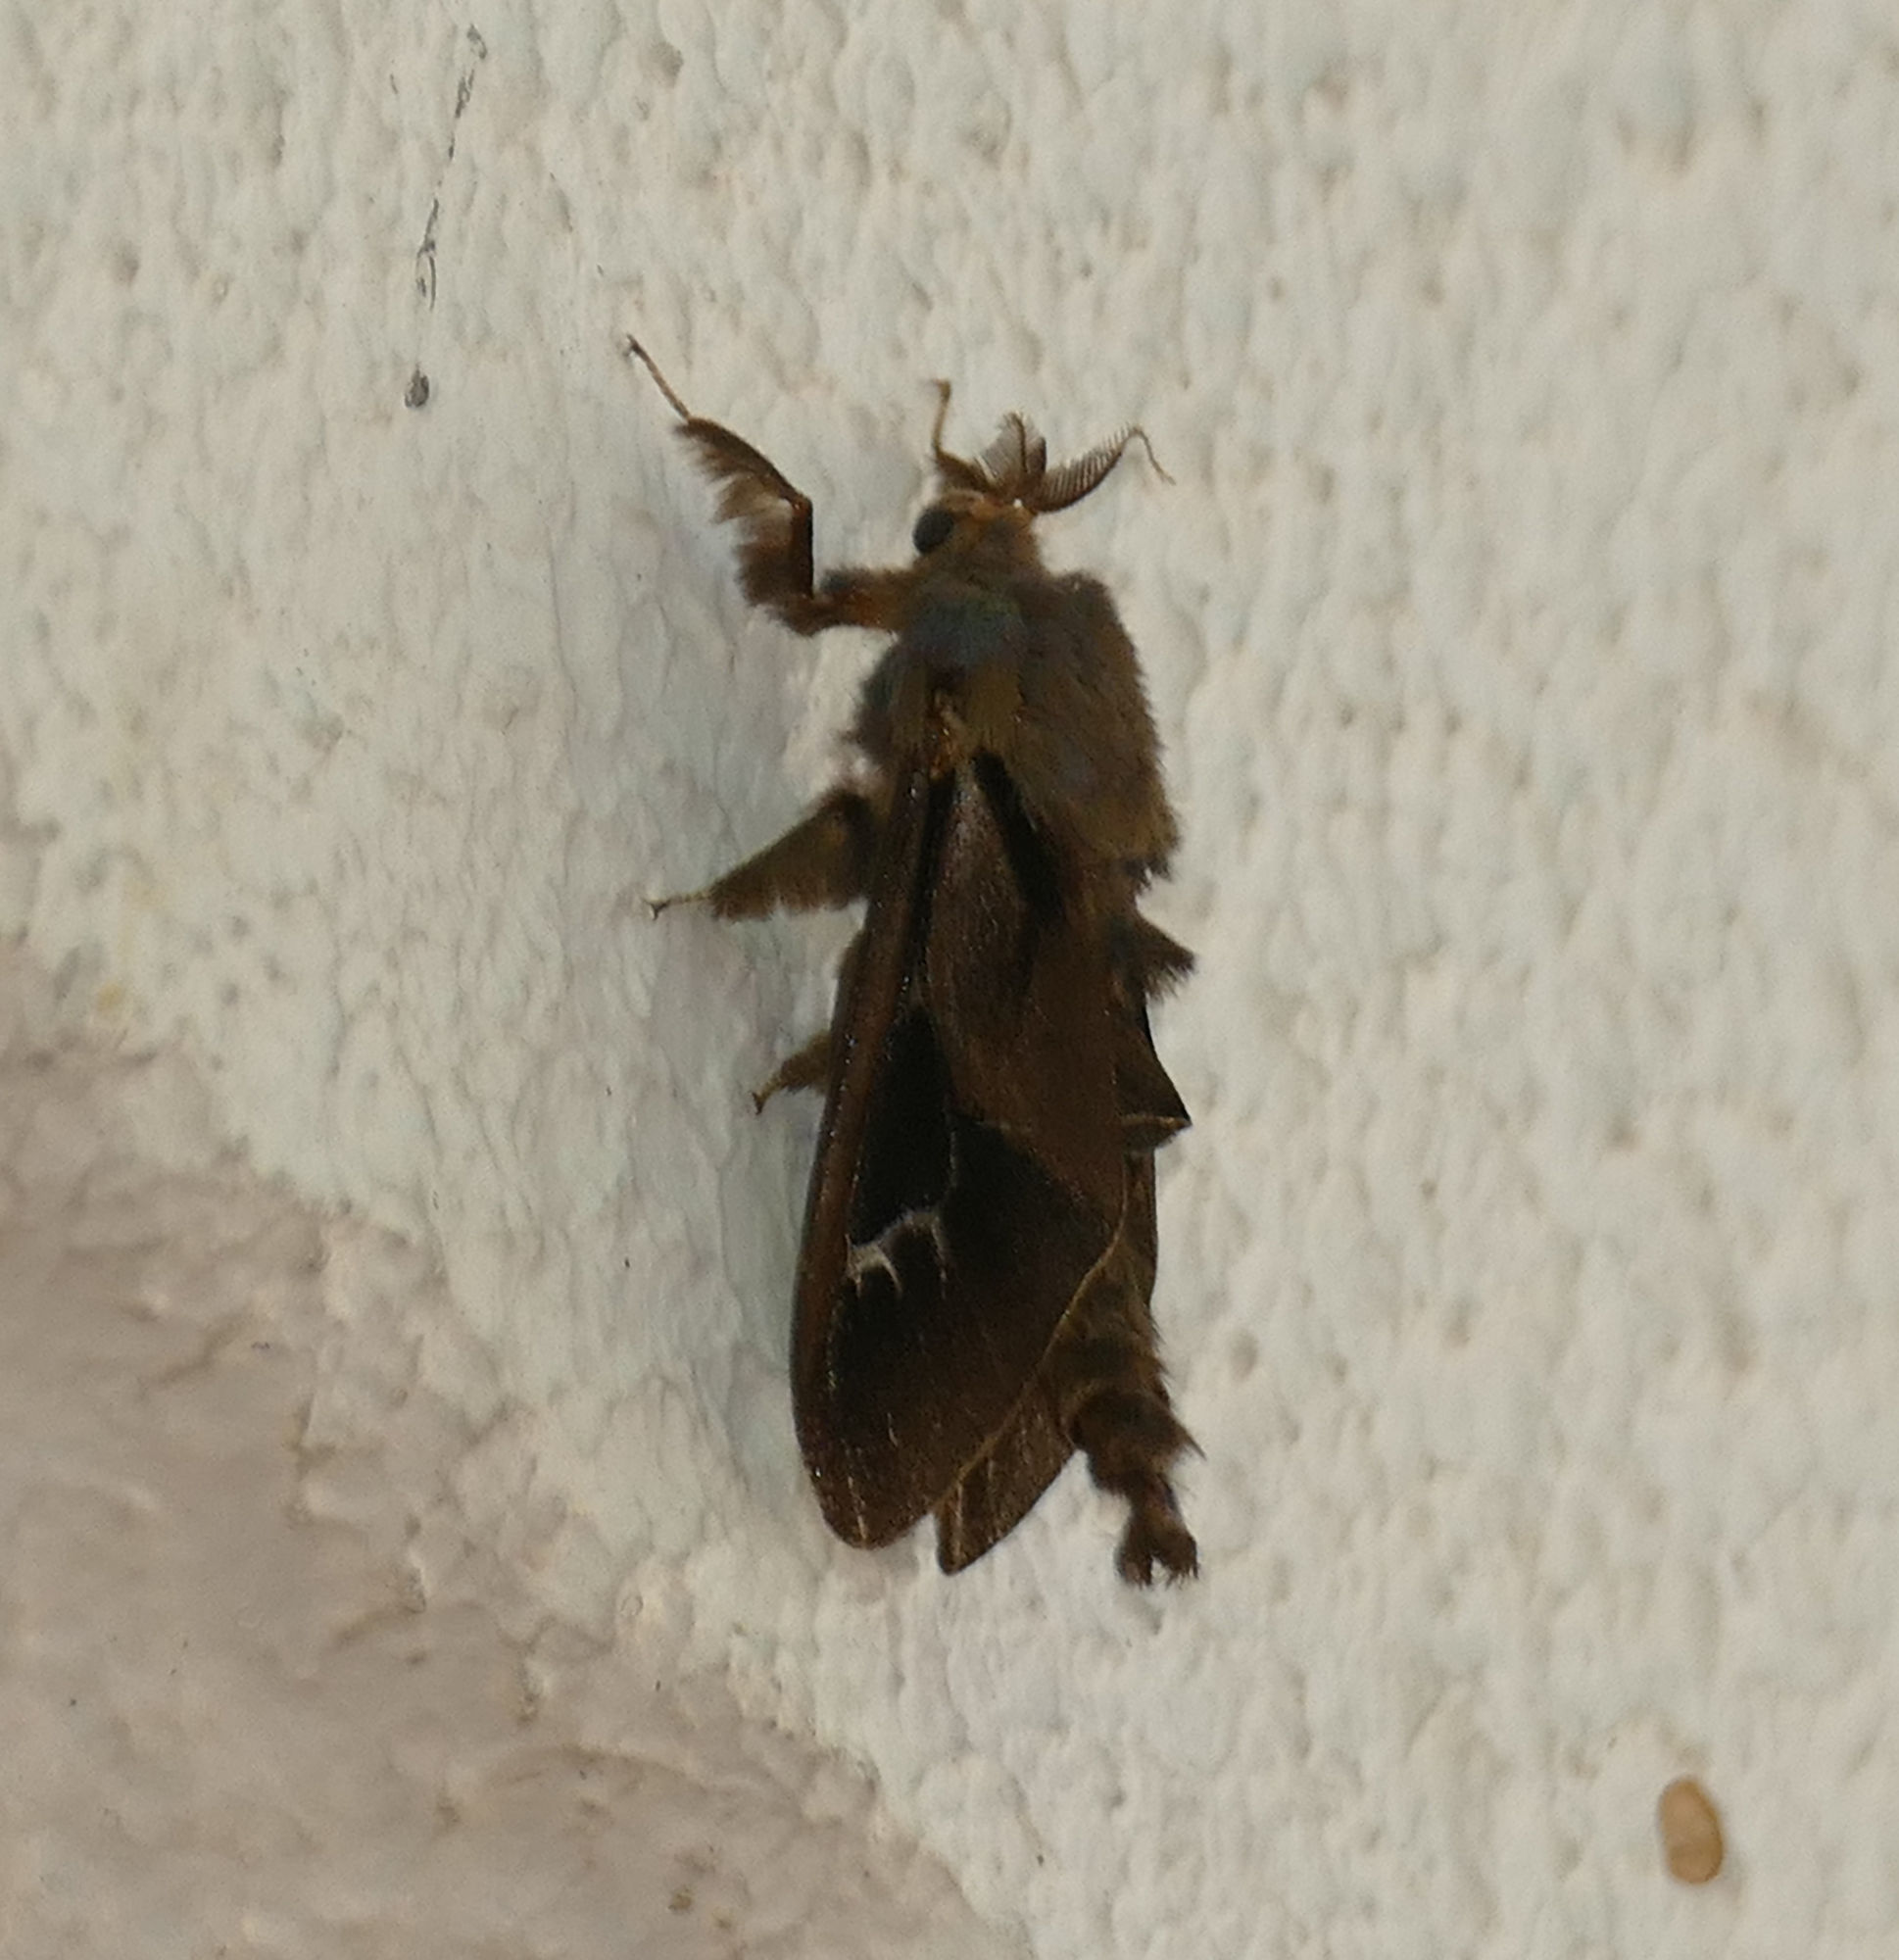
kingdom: Animalia
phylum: Arthropoda
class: Insecta
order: Lepidoptera
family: Psychidae
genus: Oiketicus
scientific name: Oiketicus
